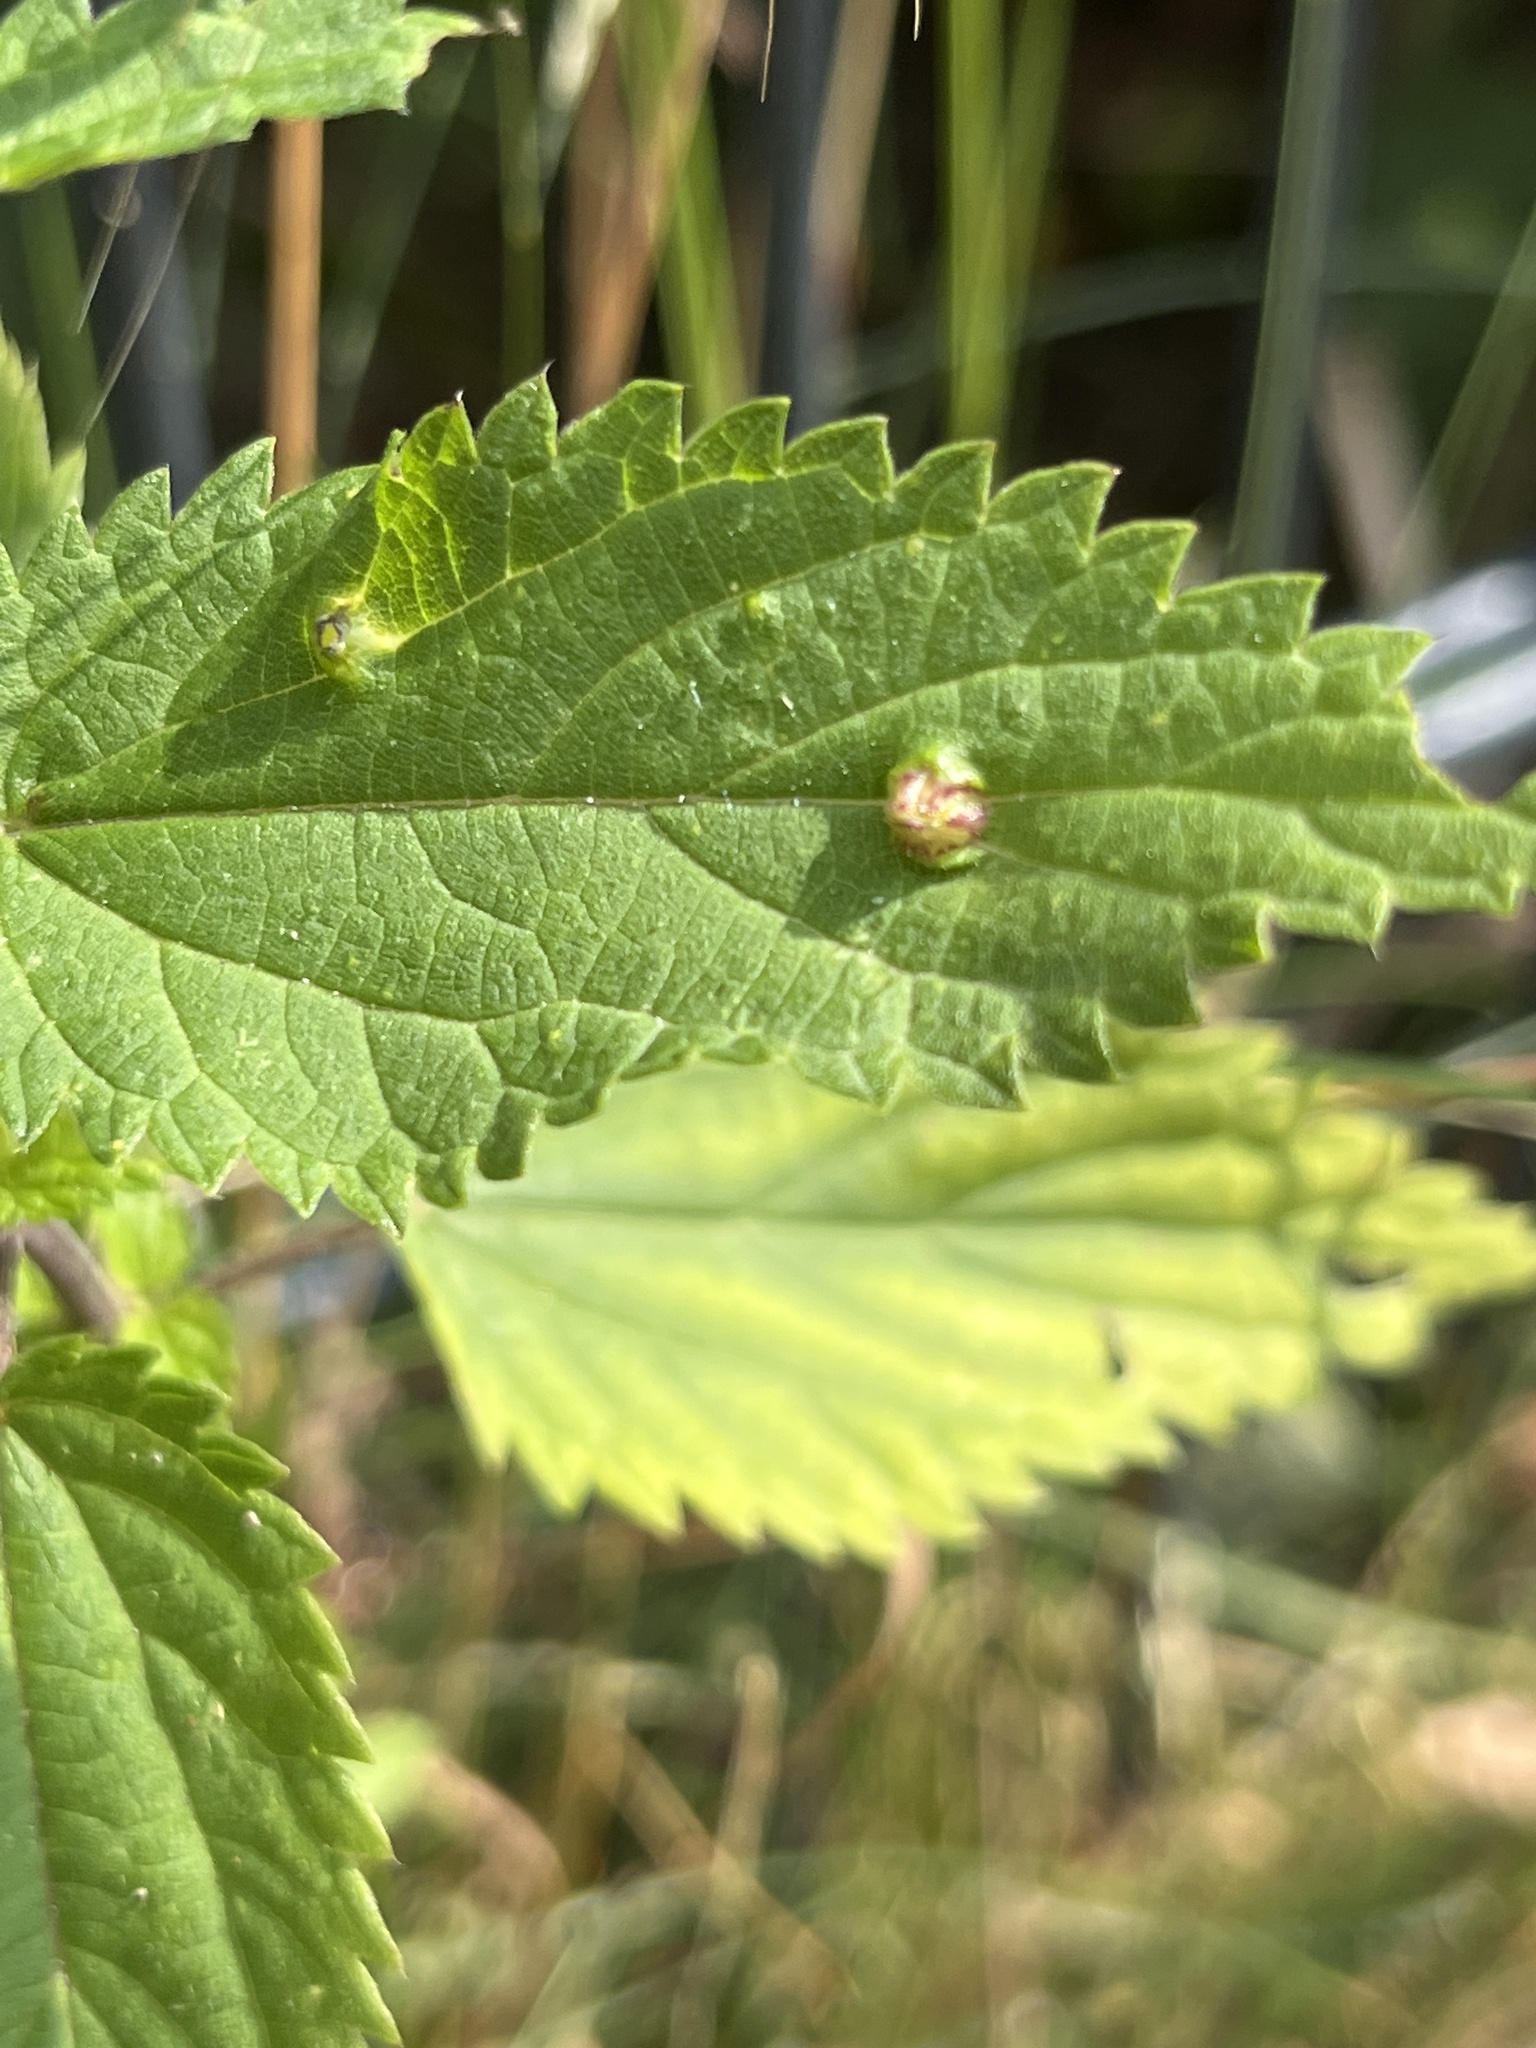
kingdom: Animalia
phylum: Arthropoda
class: Insecta
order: Diptera
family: Cecidomyiidae
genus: Dasineura
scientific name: Dasineura urticae
